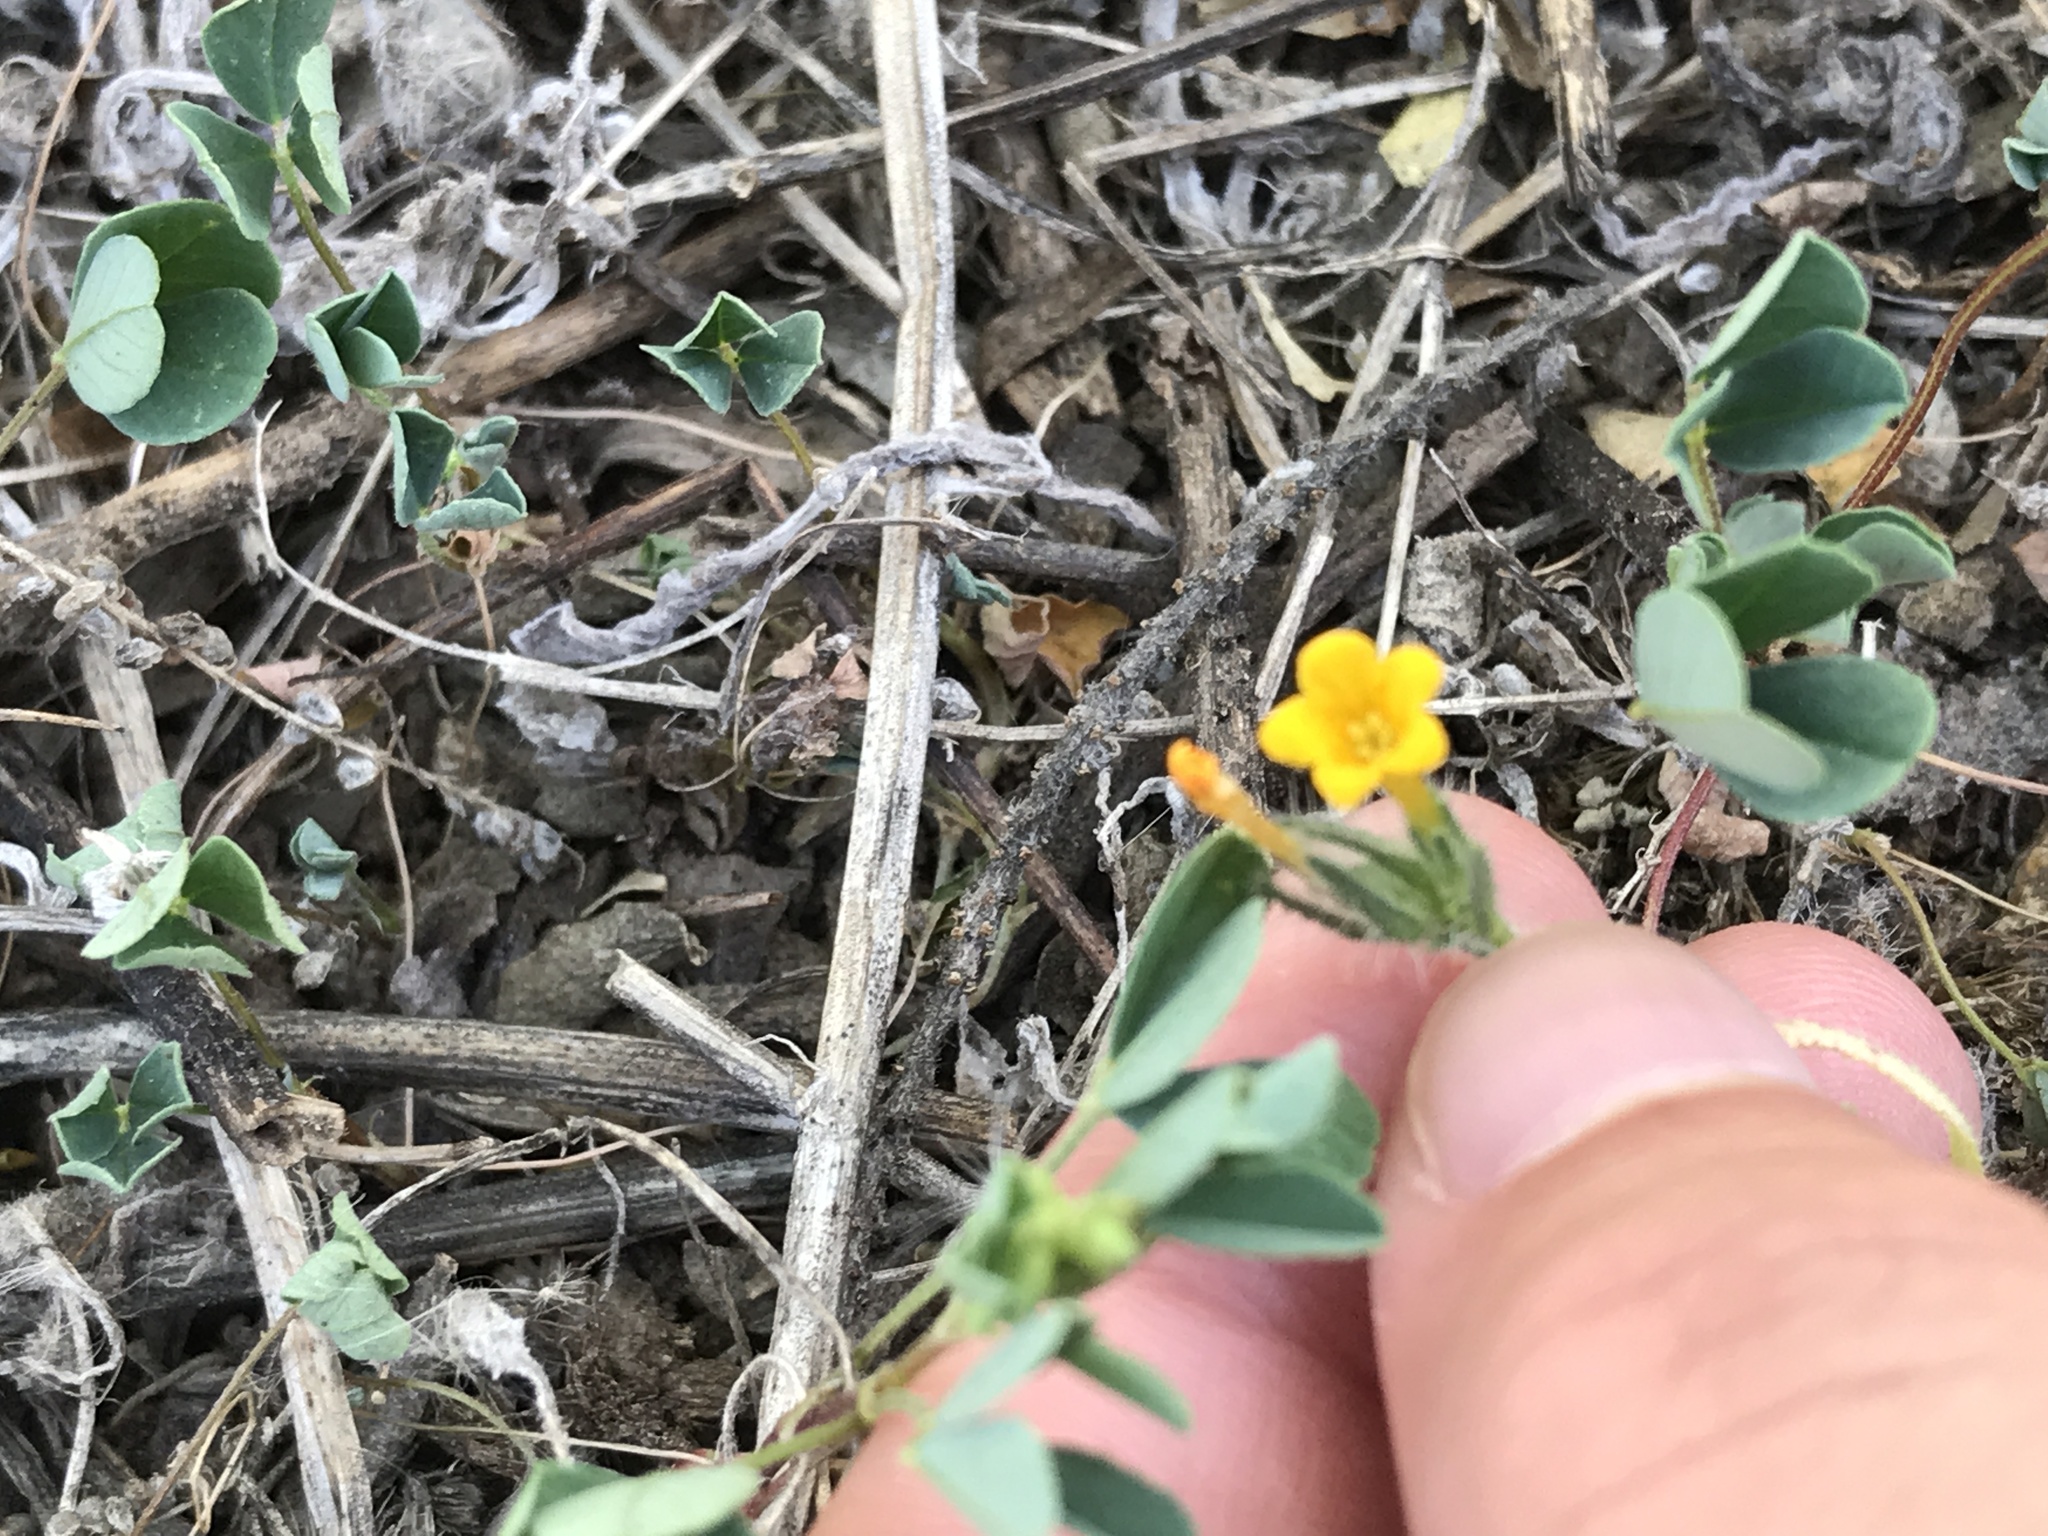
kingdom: Plantae
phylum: Tracheophyta
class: Magnoliopsida
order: Boraginales
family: Boraginaceae
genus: Amsinckia
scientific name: Amsinckia menziesii
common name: Menzies' fiddleneck
